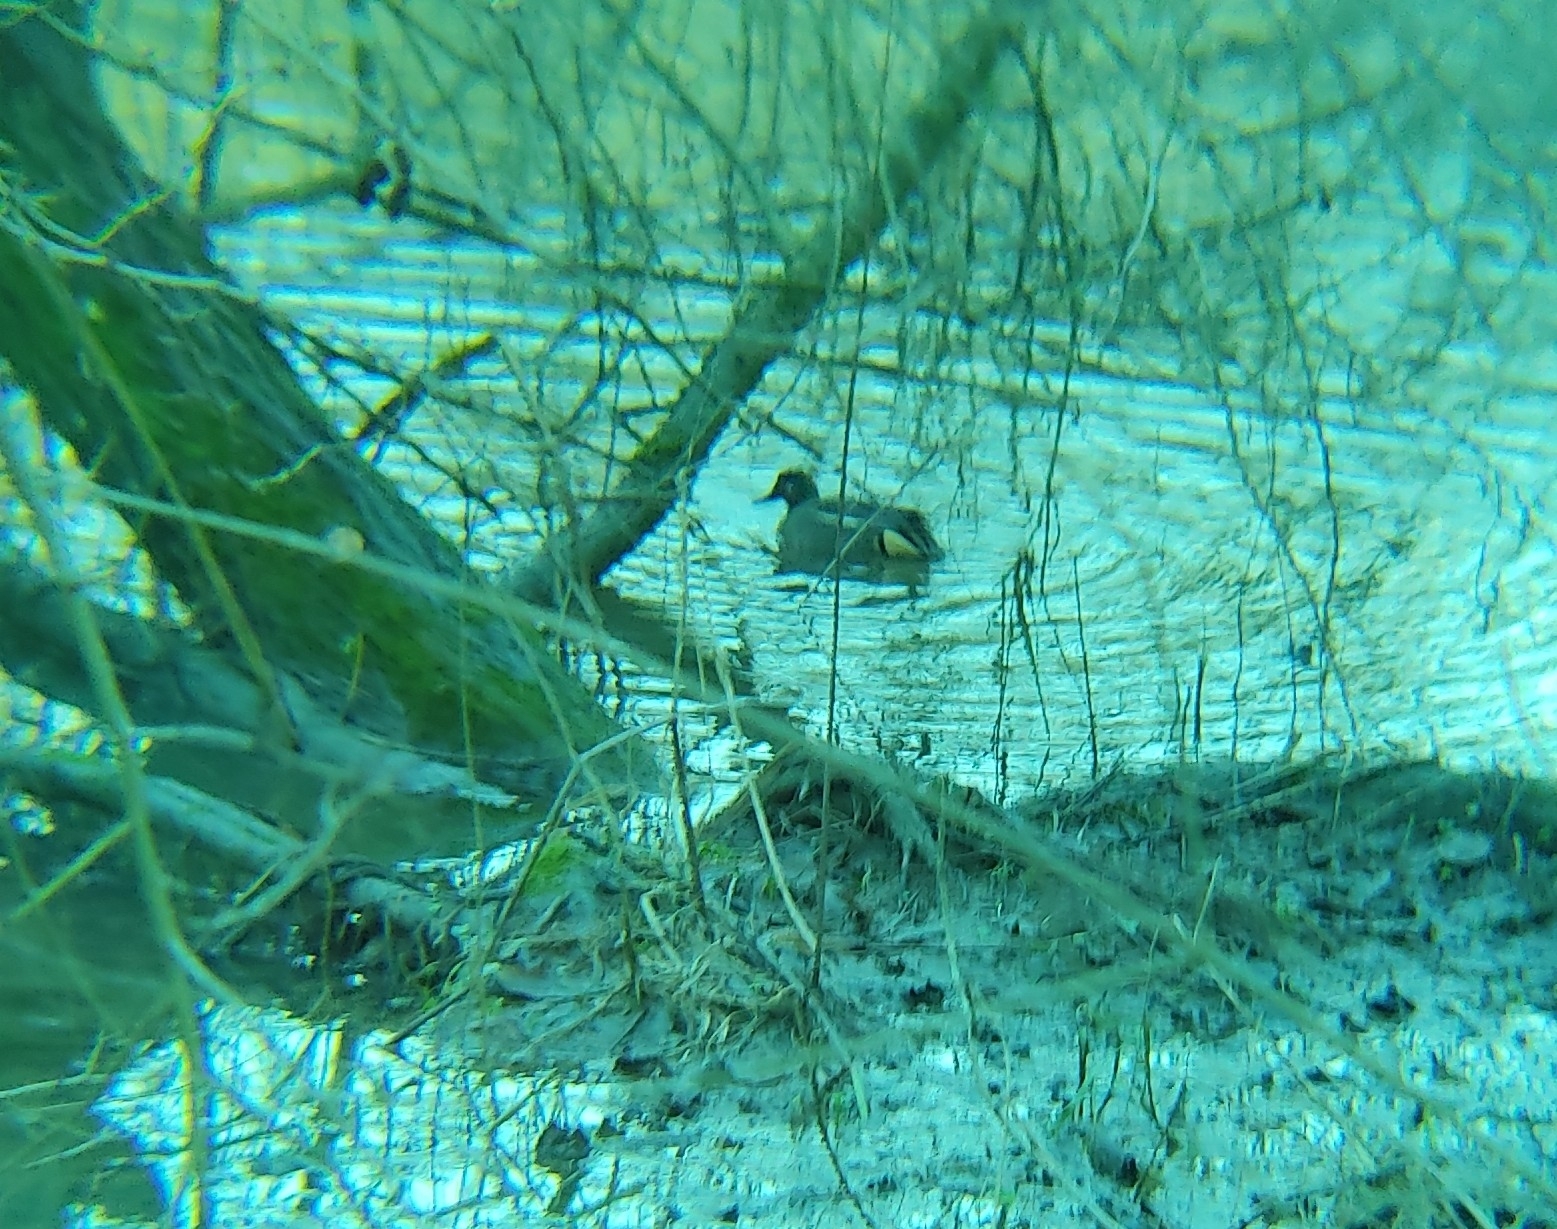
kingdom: Animalia
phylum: Chordata
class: Aves
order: Anseriformes
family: Anatidae
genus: Anas
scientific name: Anas crecca
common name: Eurasian teal
